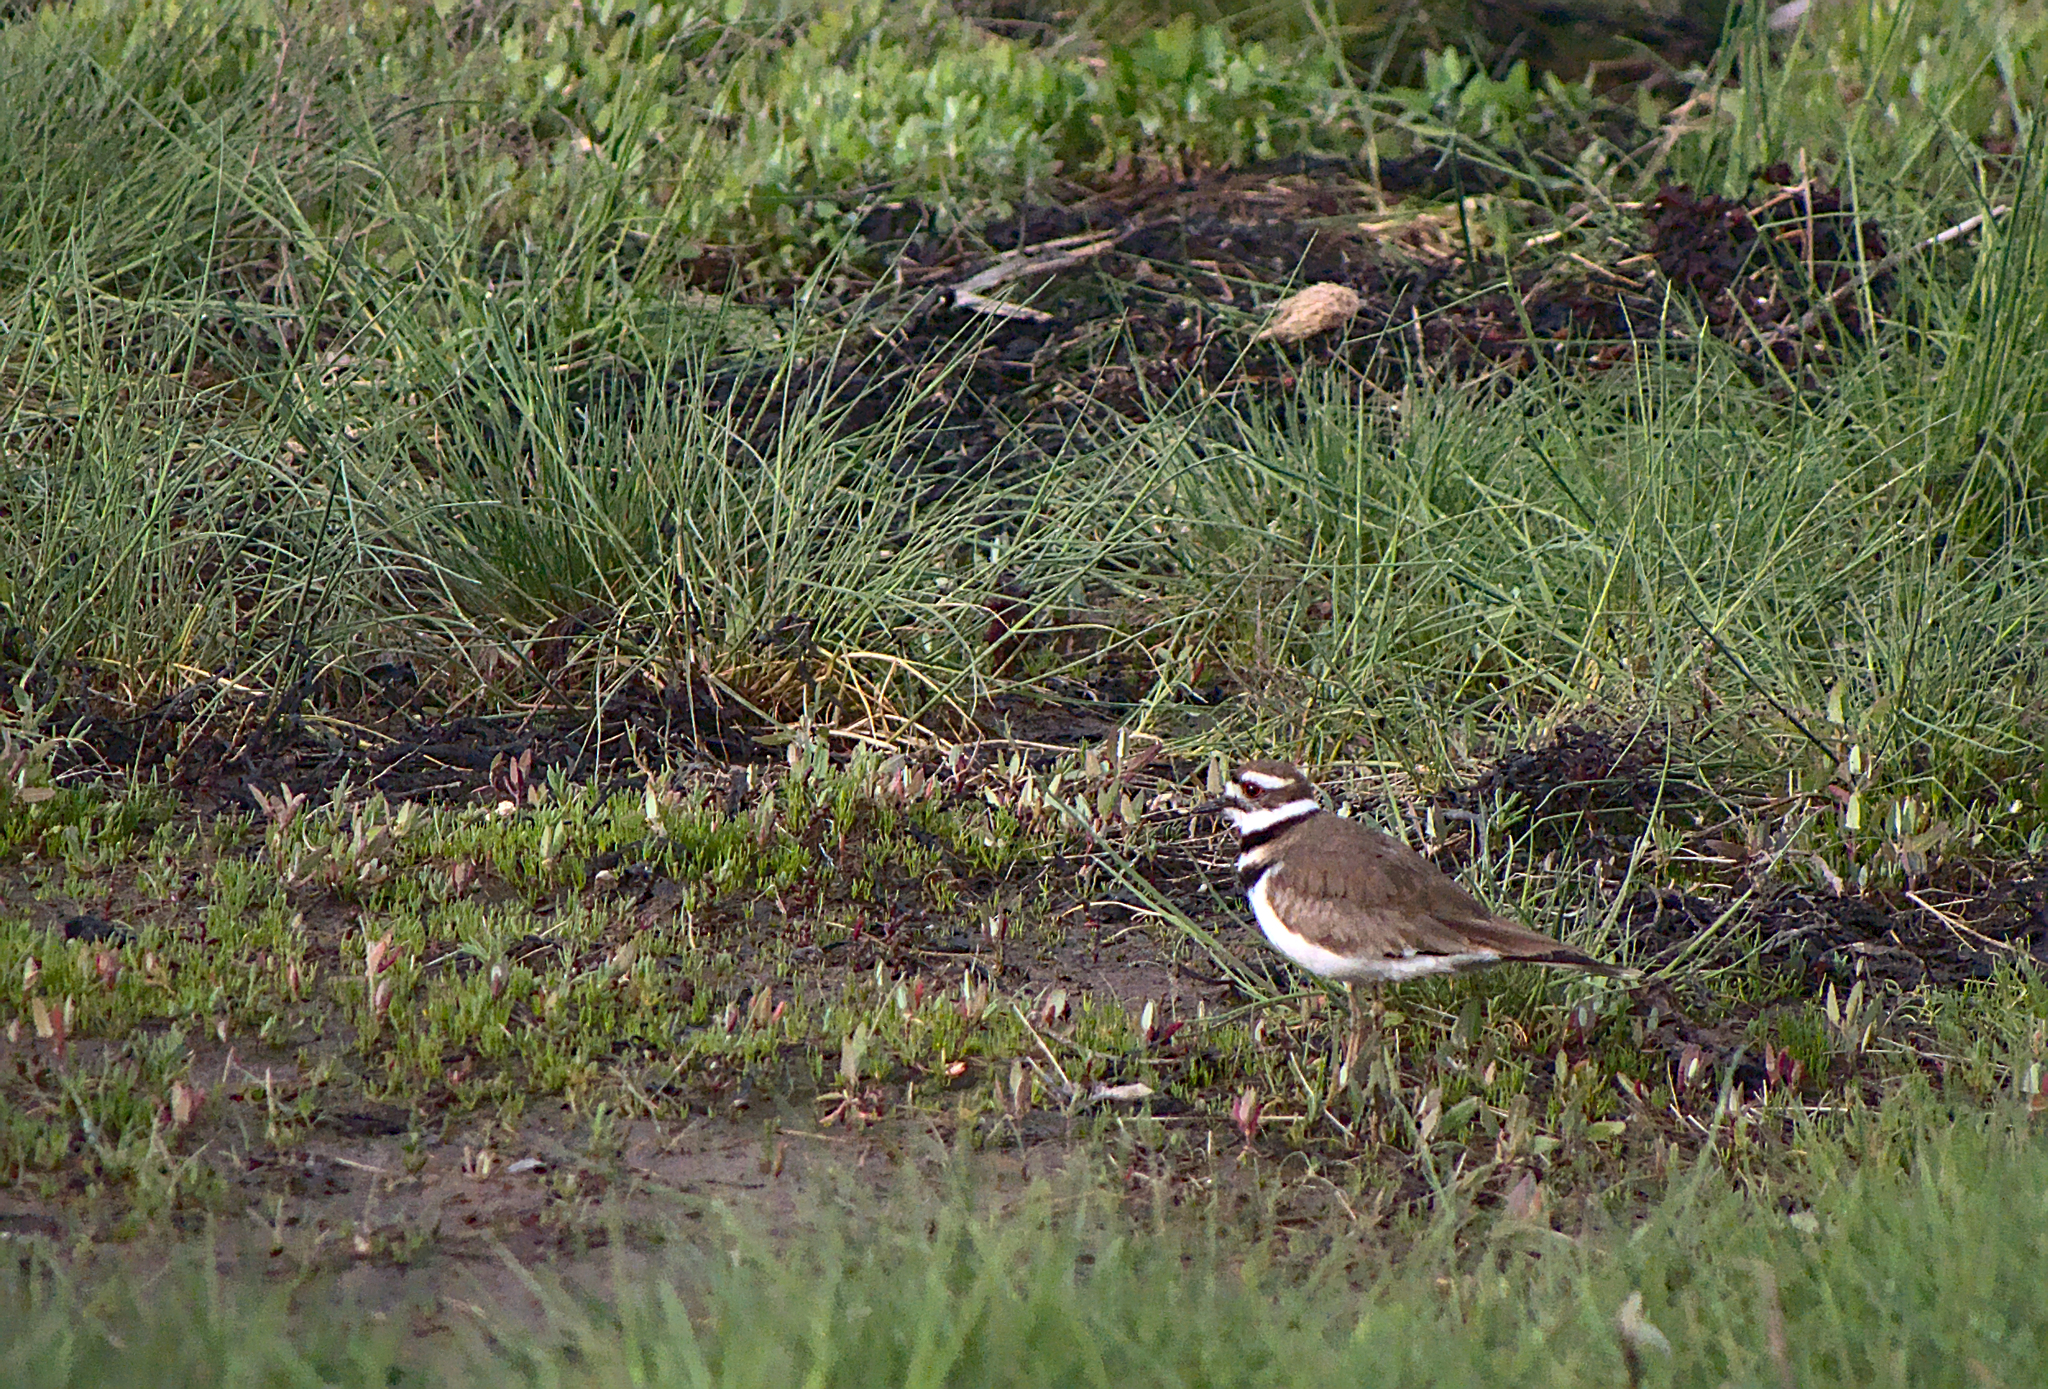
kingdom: Animalia
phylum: Chordata
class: Aves
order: Charadriiformes
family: Charadriidae
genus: Charadrius
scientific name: Charadrius vociferus
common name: Killdeer
